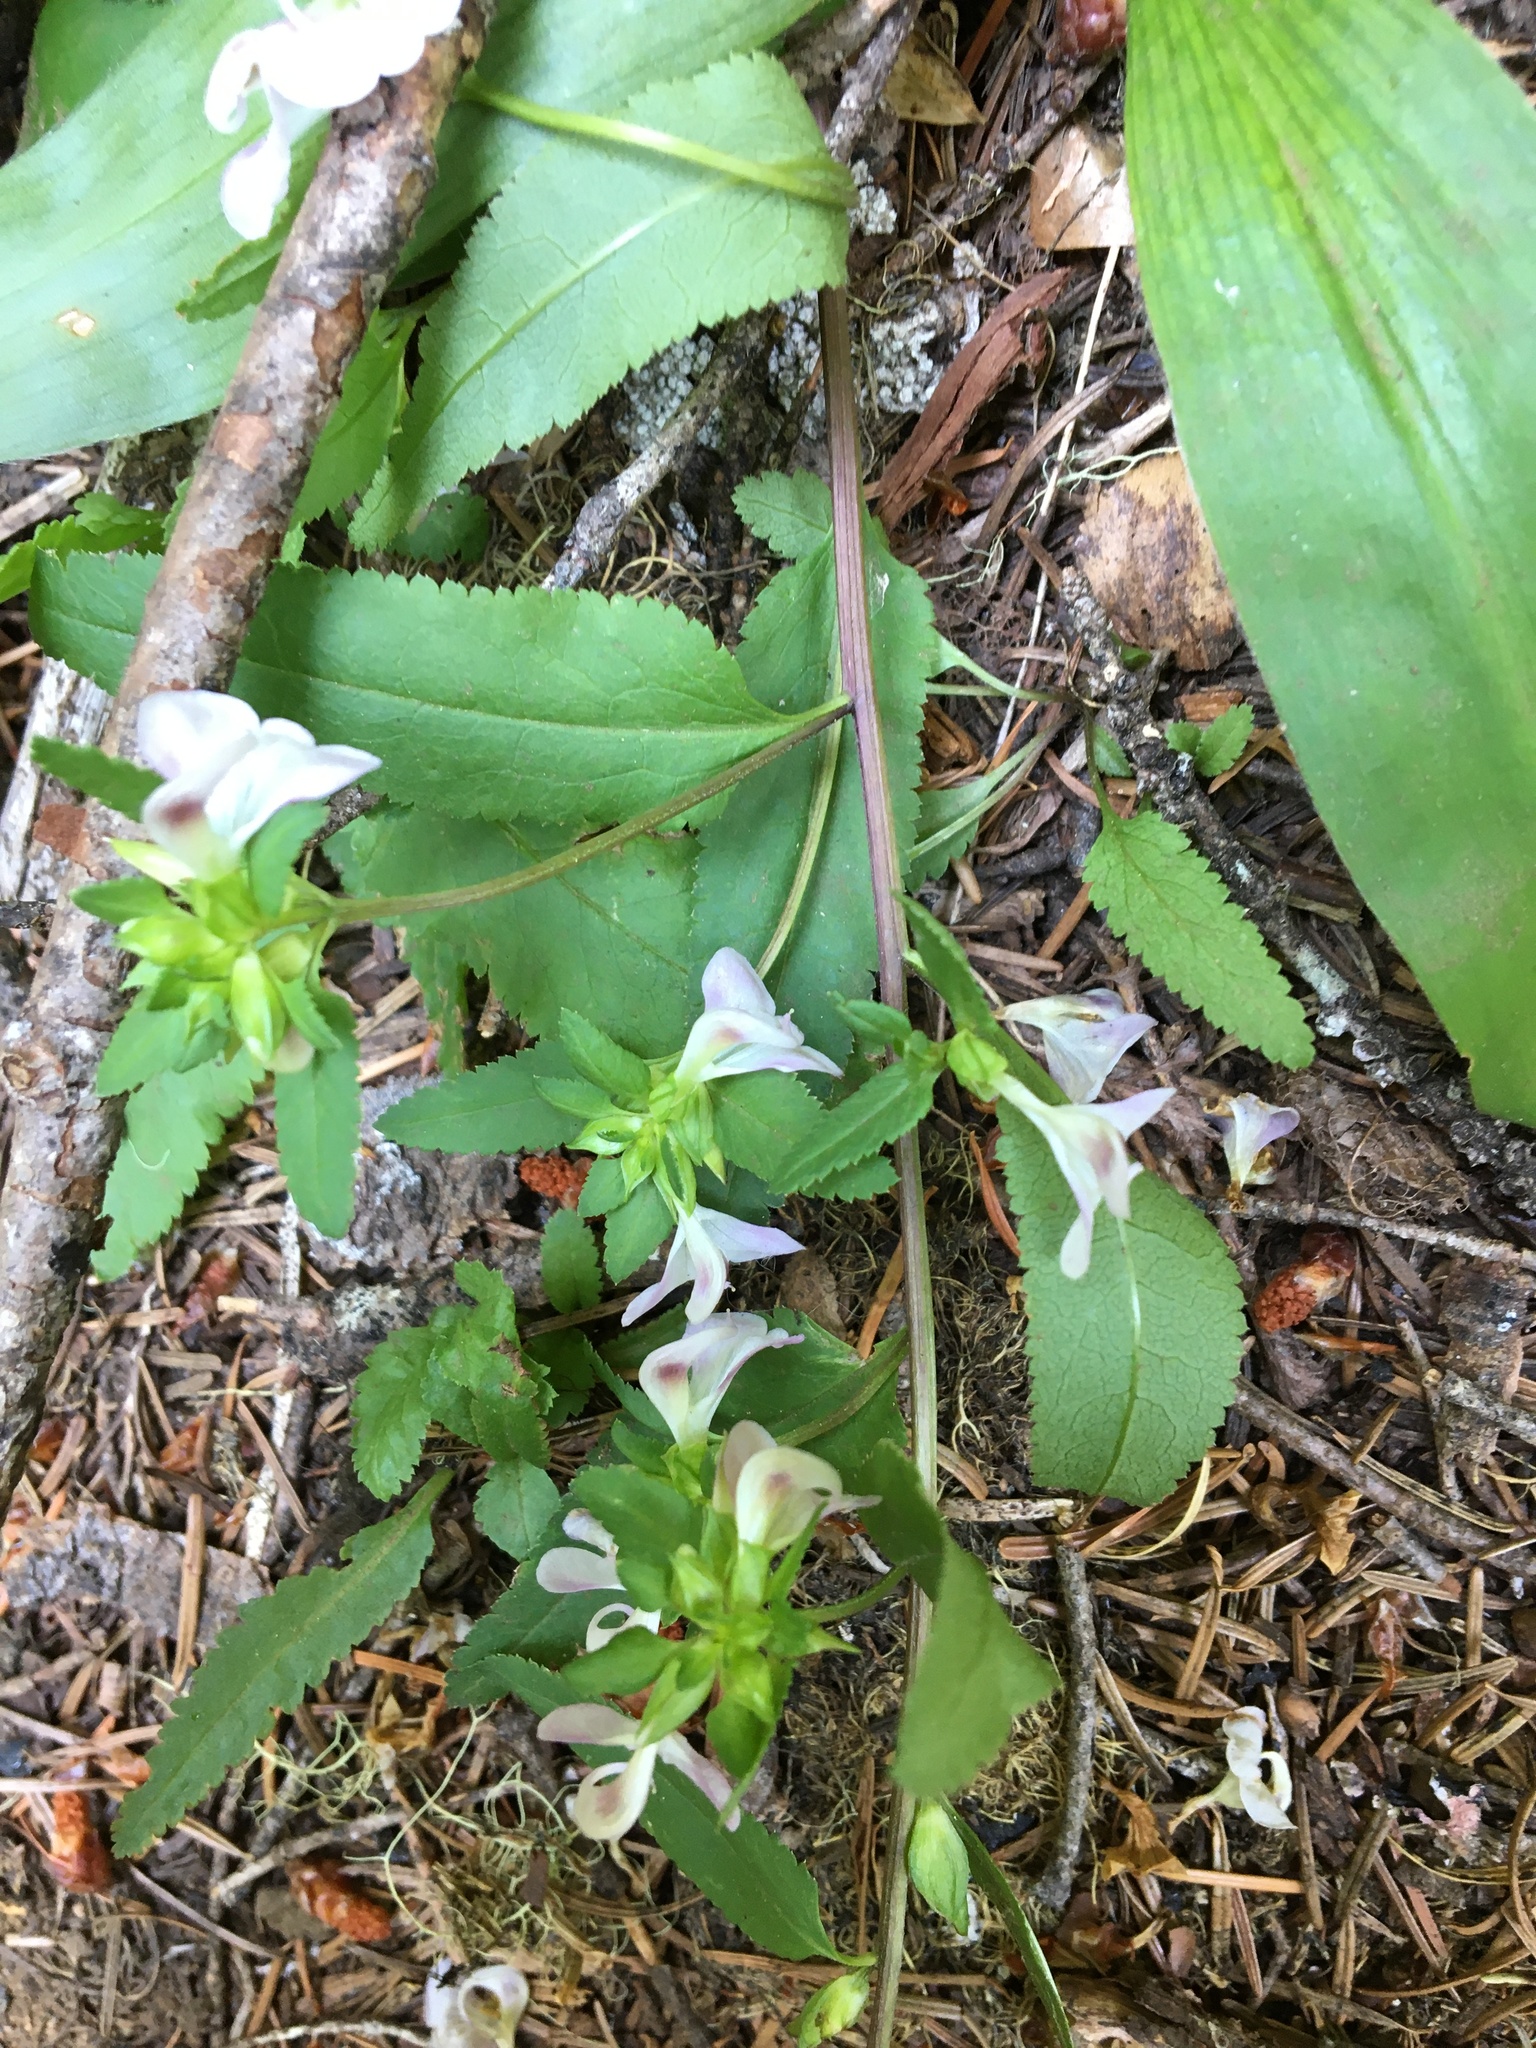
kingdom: Plantae
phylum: Tracheophyta
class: Magnoliopsida
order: Lamiales
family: Orobanchaceae
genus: Pedicularis
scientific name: Pedicularis racemosa
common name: Leafy lousewort
